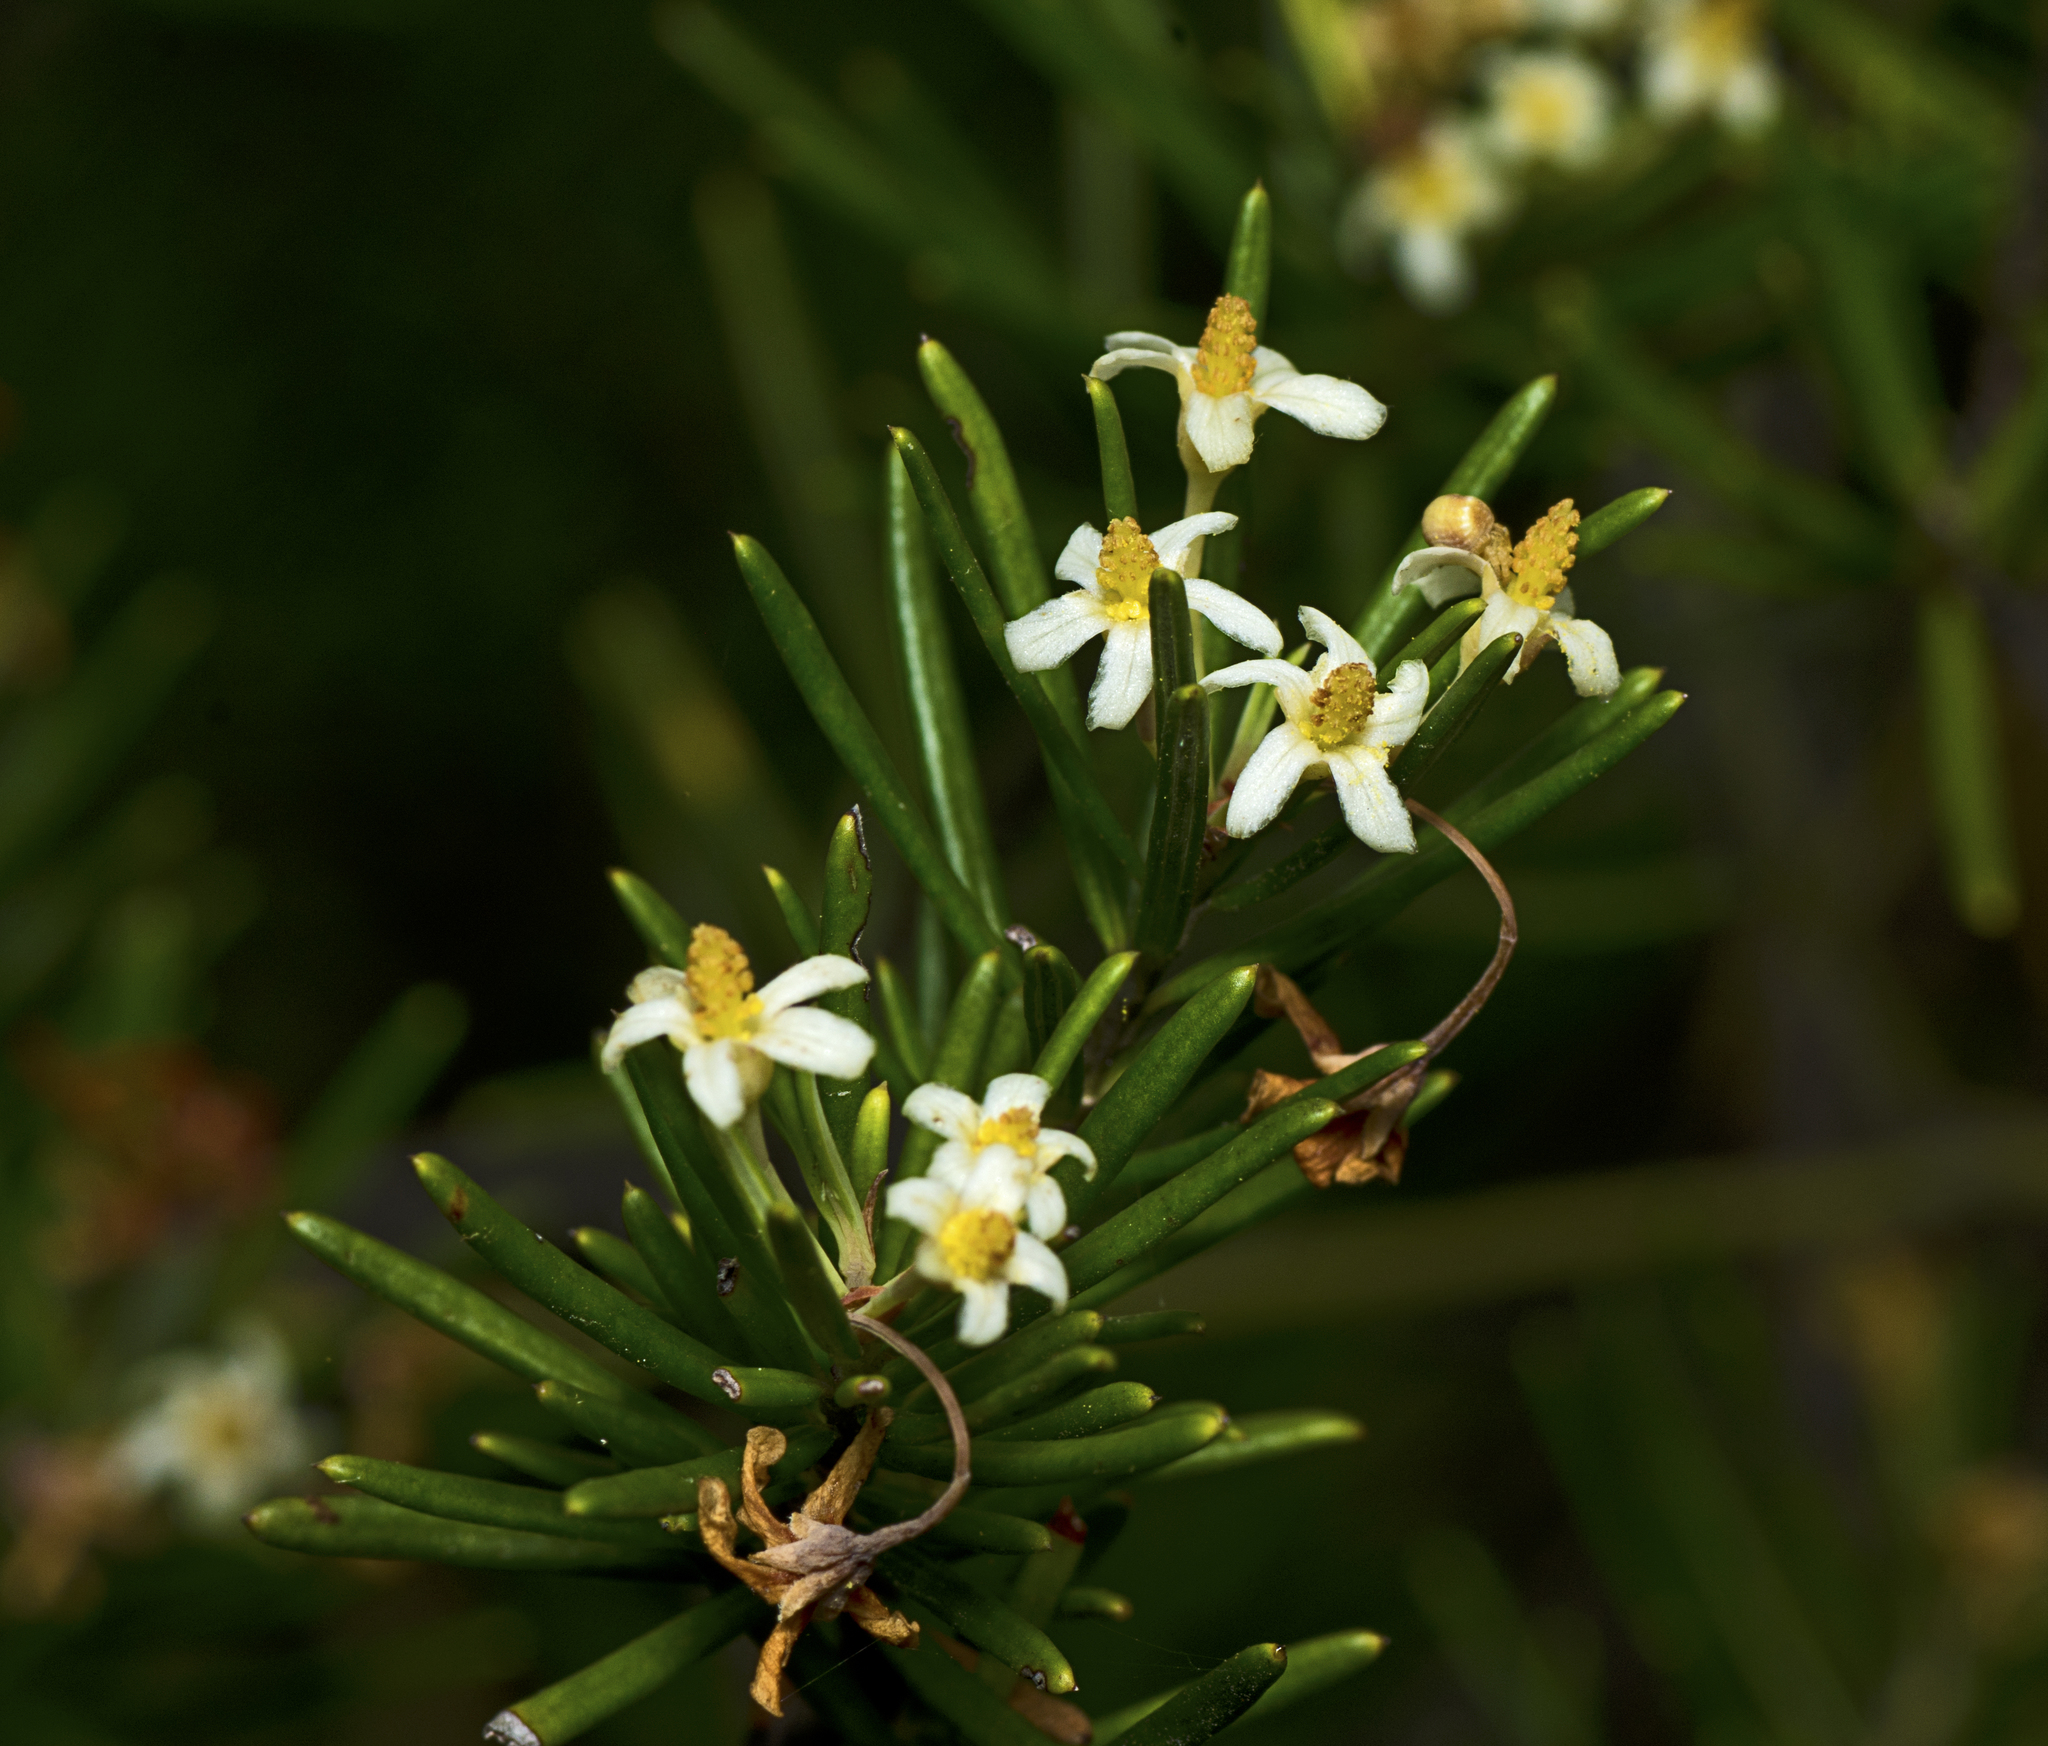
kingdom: Plantae
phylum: Tracheophyta
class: Magnoliopsida
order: Malpighiales
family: Euphorbiaceae
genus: Ricinocarpos
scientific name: Ricinocarpos pinifolius
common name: Weddingbush
